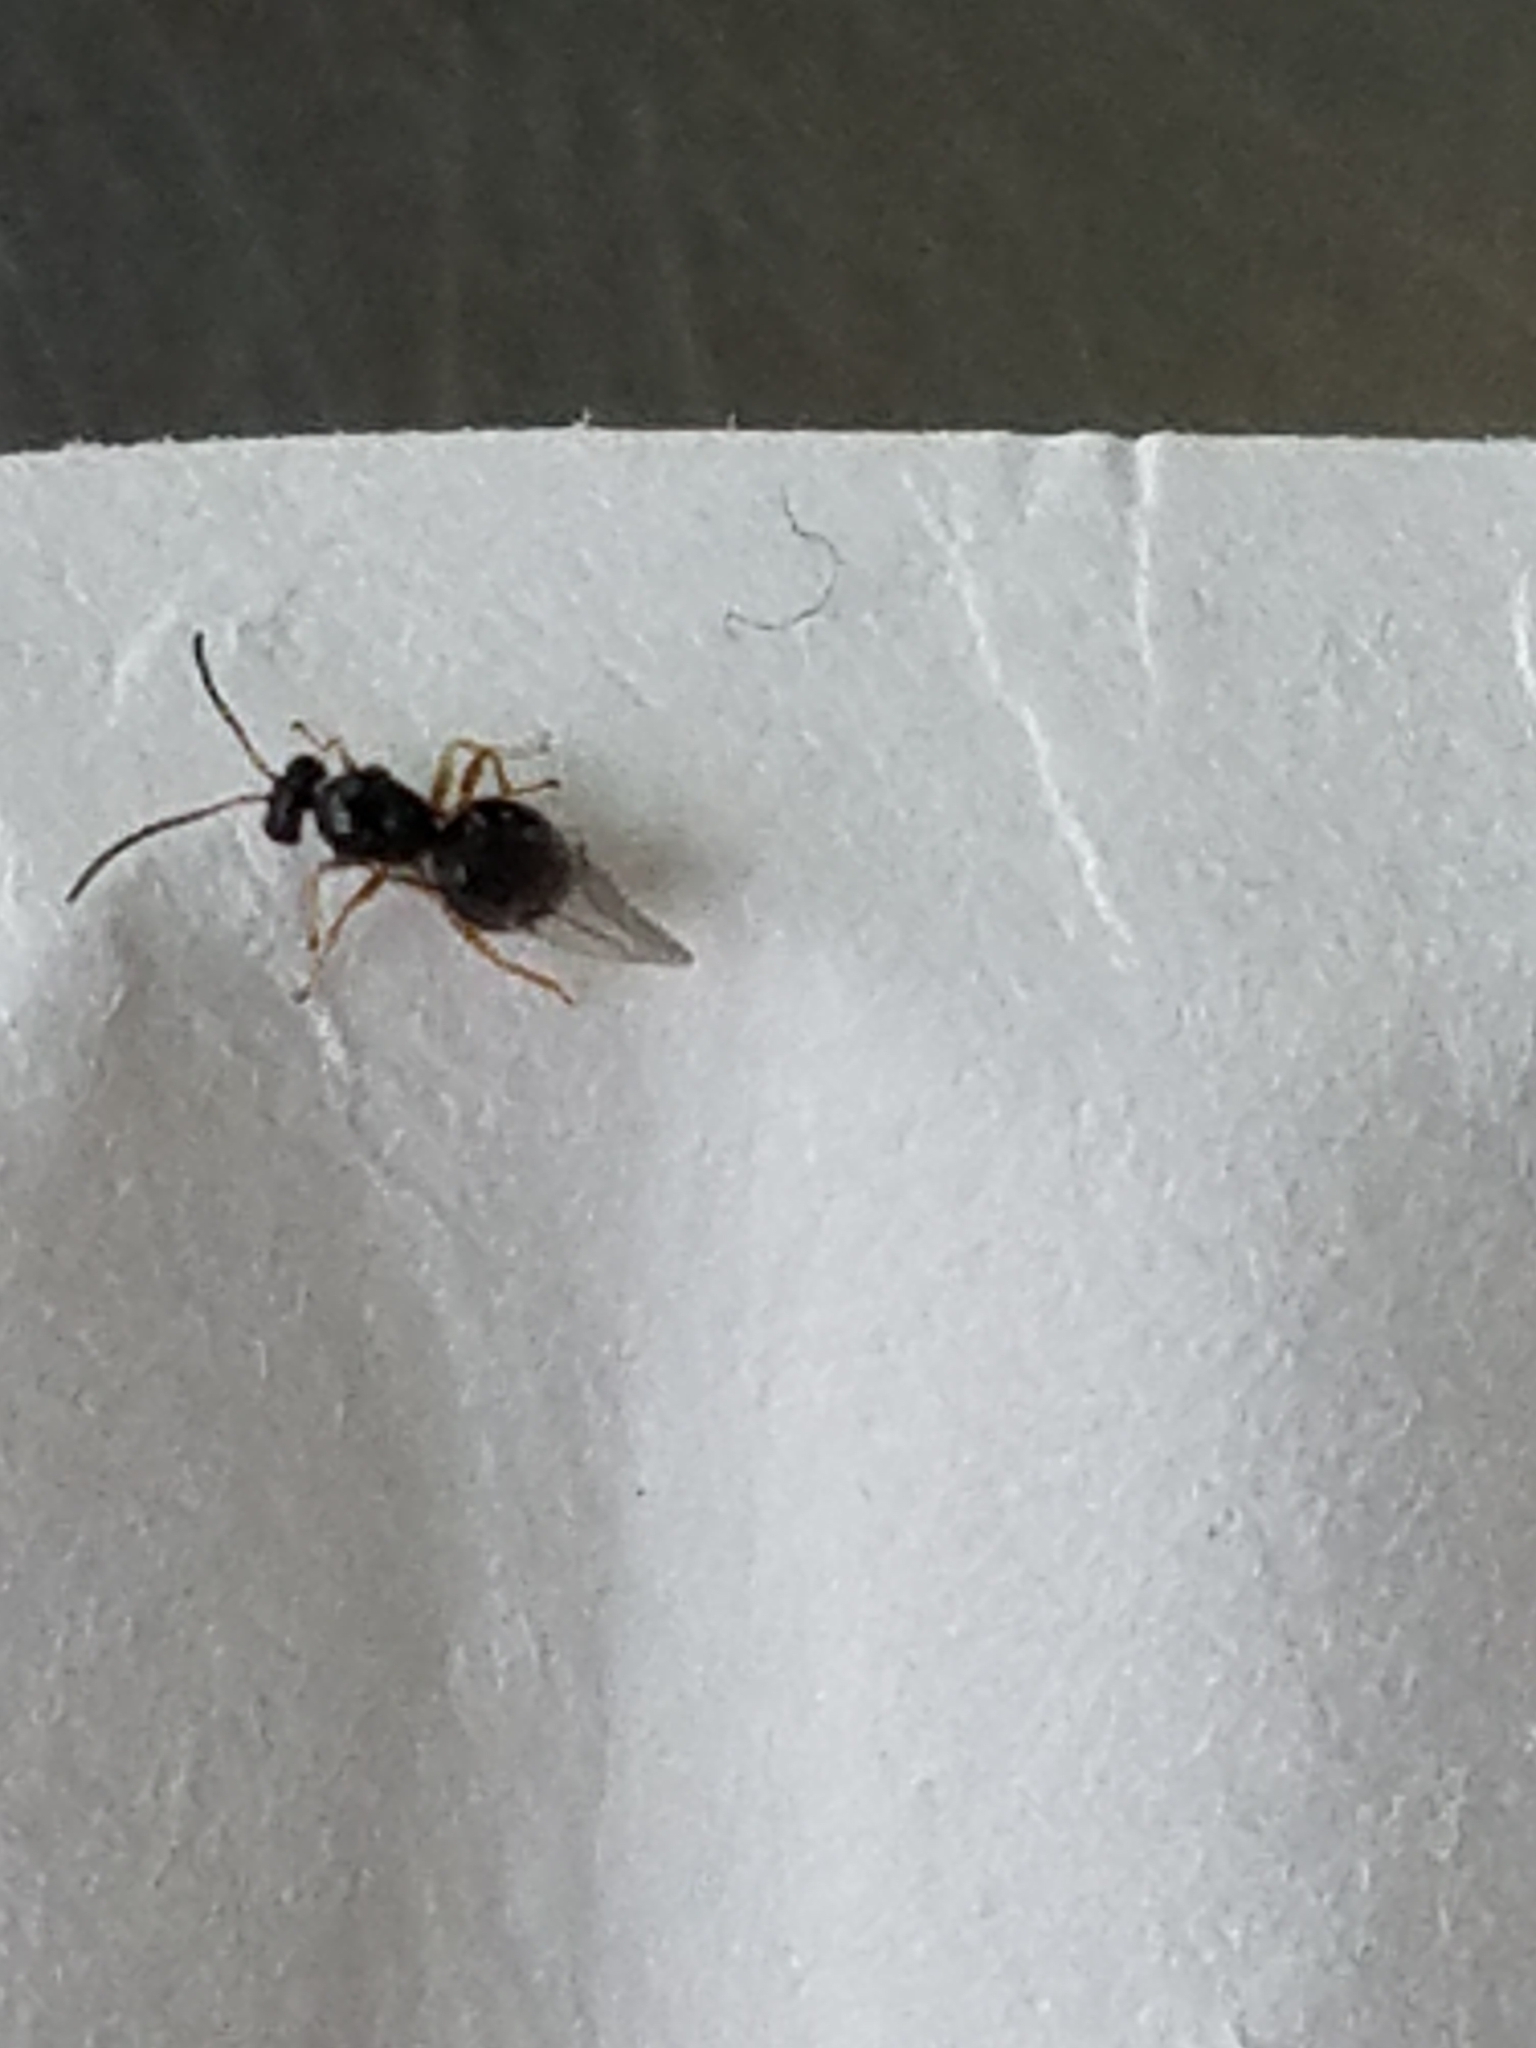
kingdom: Animalia
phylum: Arthropoda
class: Insecta
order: Hymenoptera
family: Cynipidae
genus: Dryocosmus
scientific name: Dryocosmus quercuspalustris
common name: Succulent oak gall wasp
